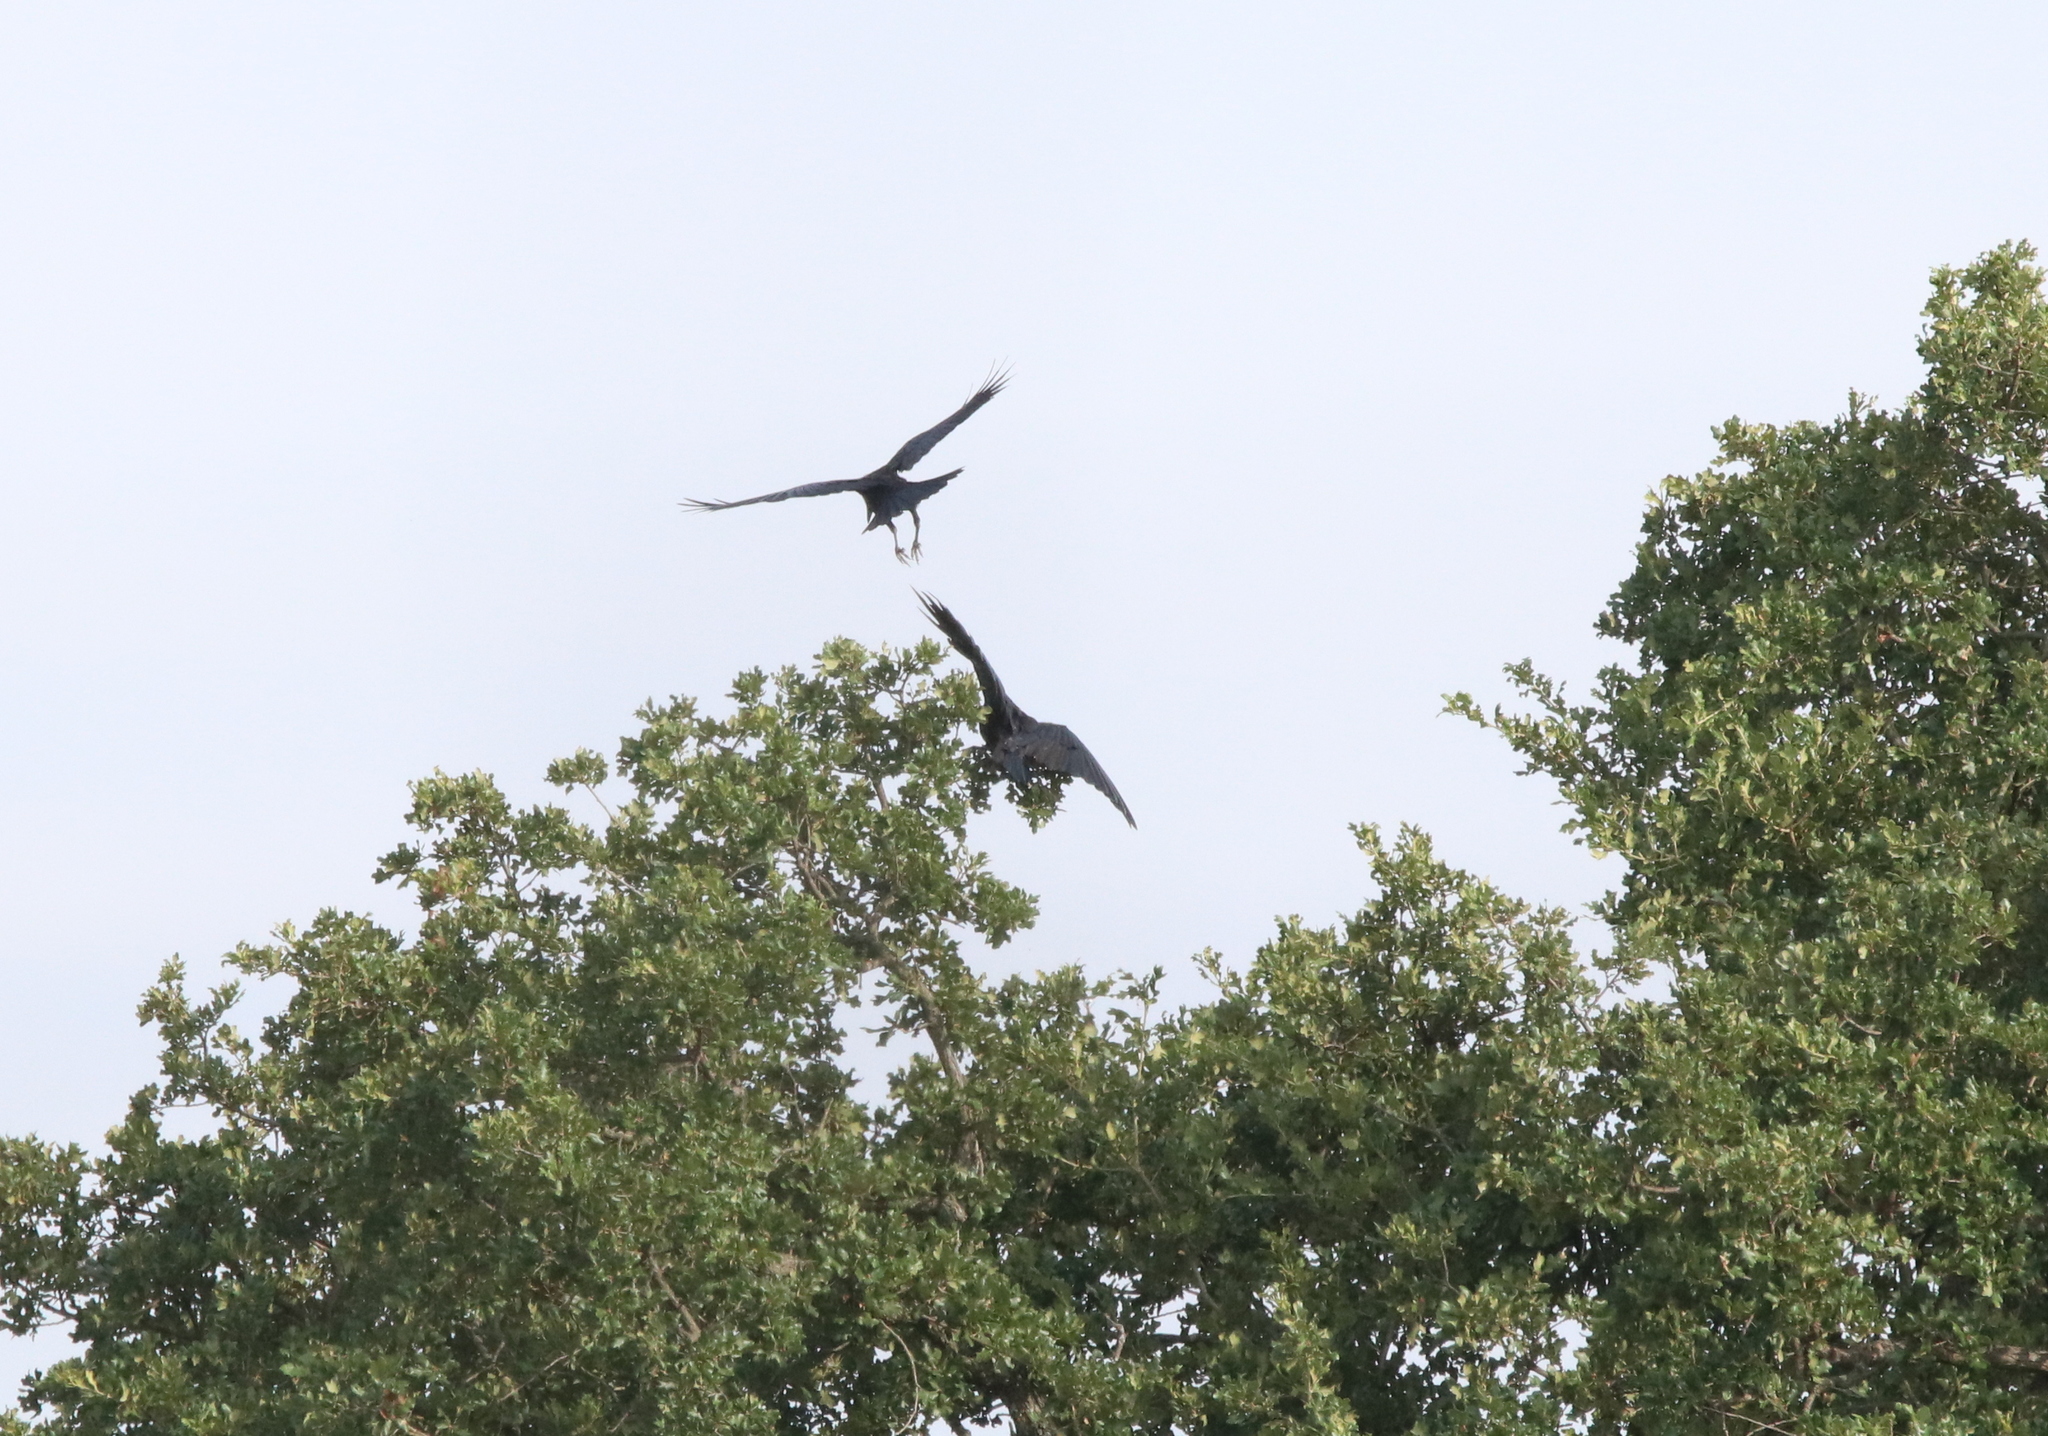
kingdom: Animalia
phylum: Chordata
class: Aves
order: Passeriformes
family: Corvidae
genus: Corvus
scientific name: Corvus brachyrhynchos
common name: American crow
